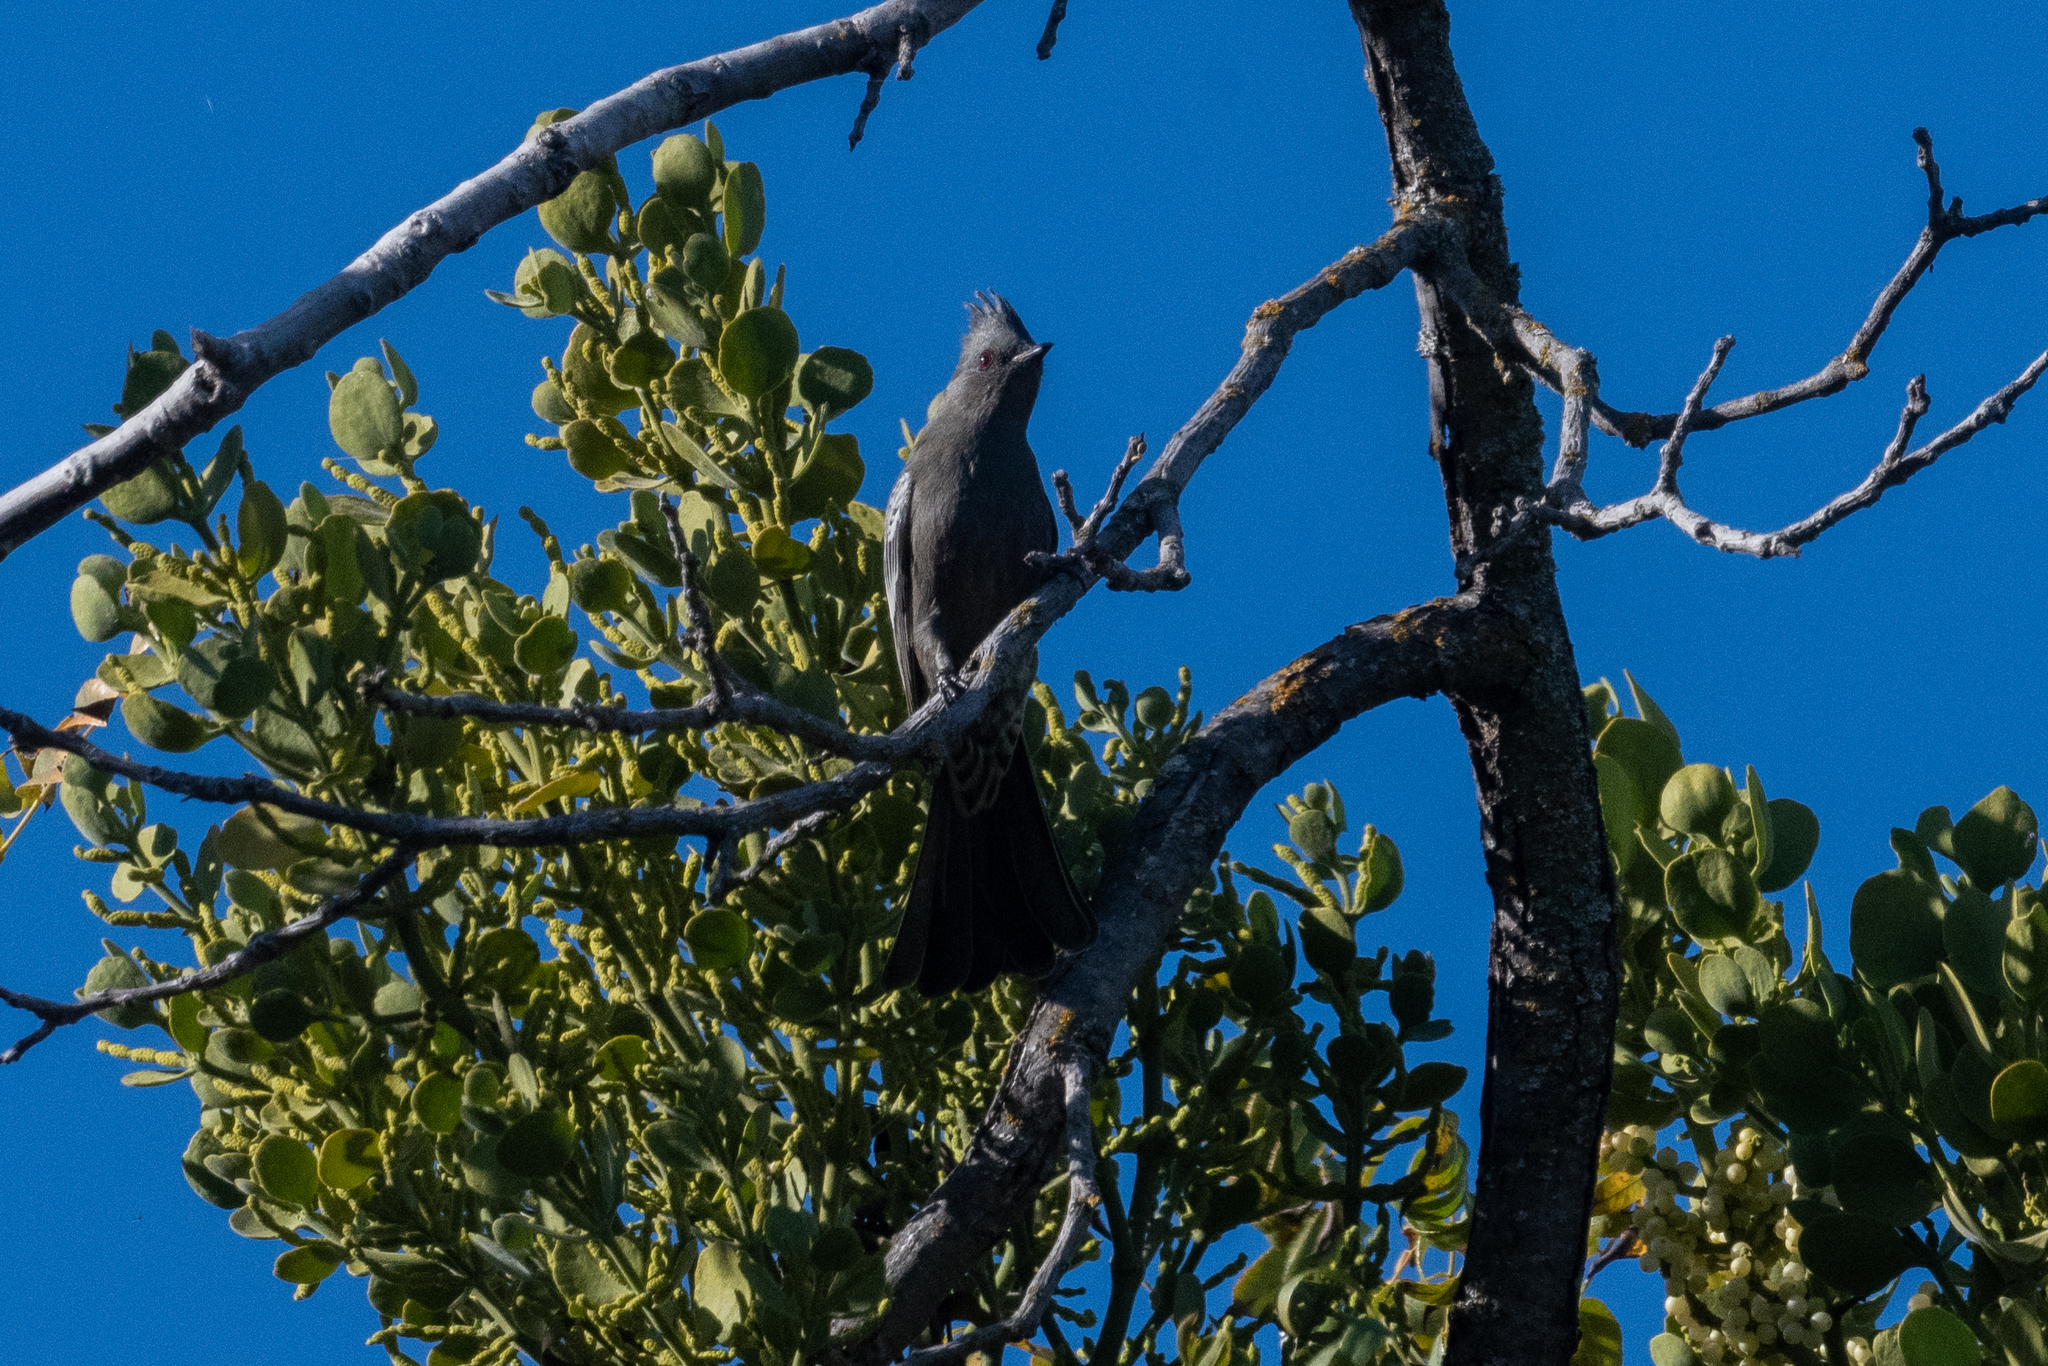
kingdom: Animalia
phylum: Chordata
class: Aves
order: Passeriformes
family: Ptilogonatidae
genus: Phainopepla
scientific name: Phainopepla nitens
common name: Phainopepla
